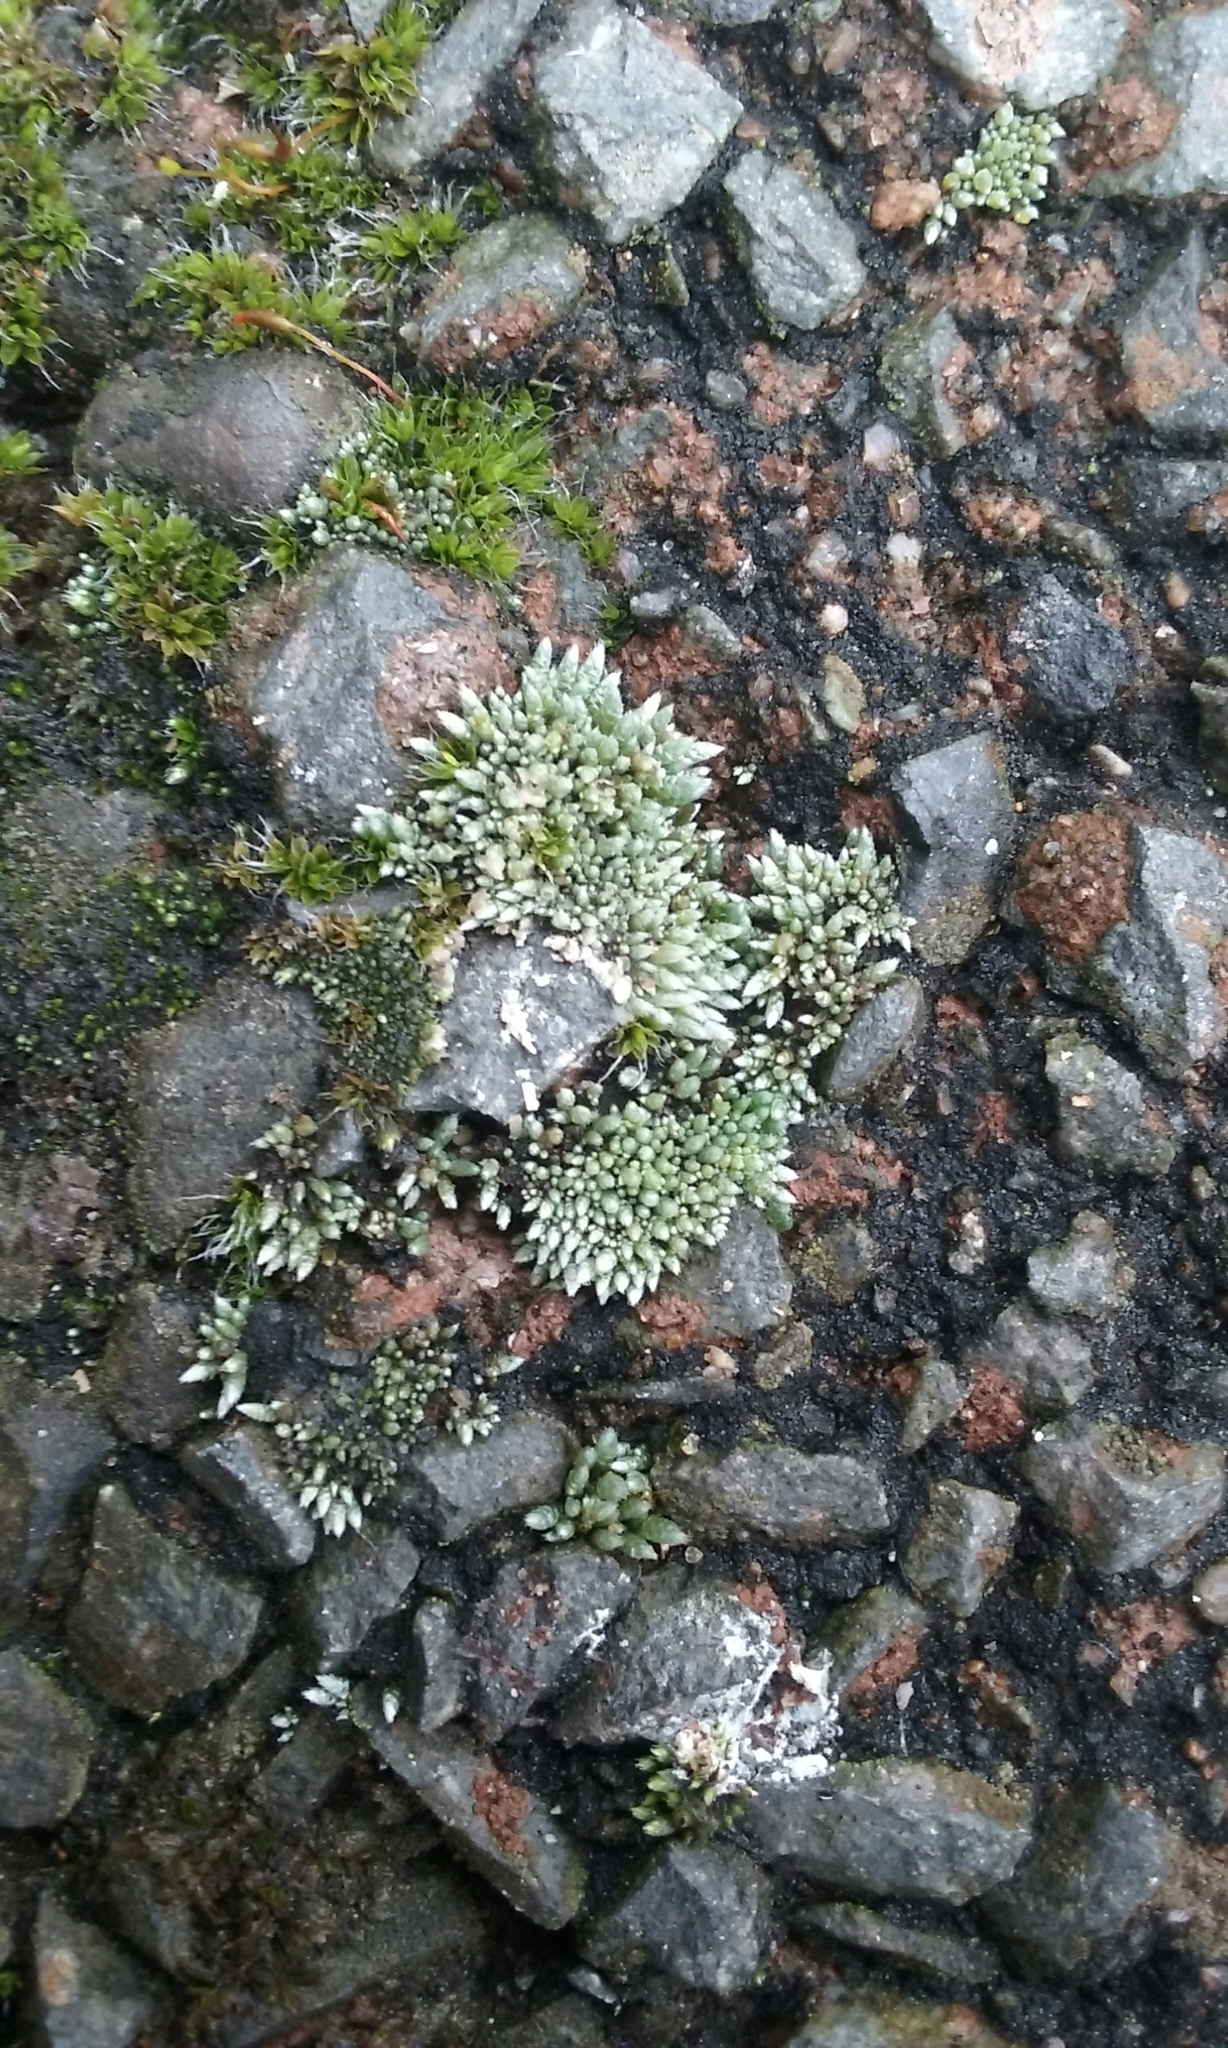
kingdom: Plantae
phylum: Bryophyta
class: Bryopsida
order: Bryales
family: Bryaceae
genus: Bryum
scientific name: Bryum argenteum
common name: Silver-moss
